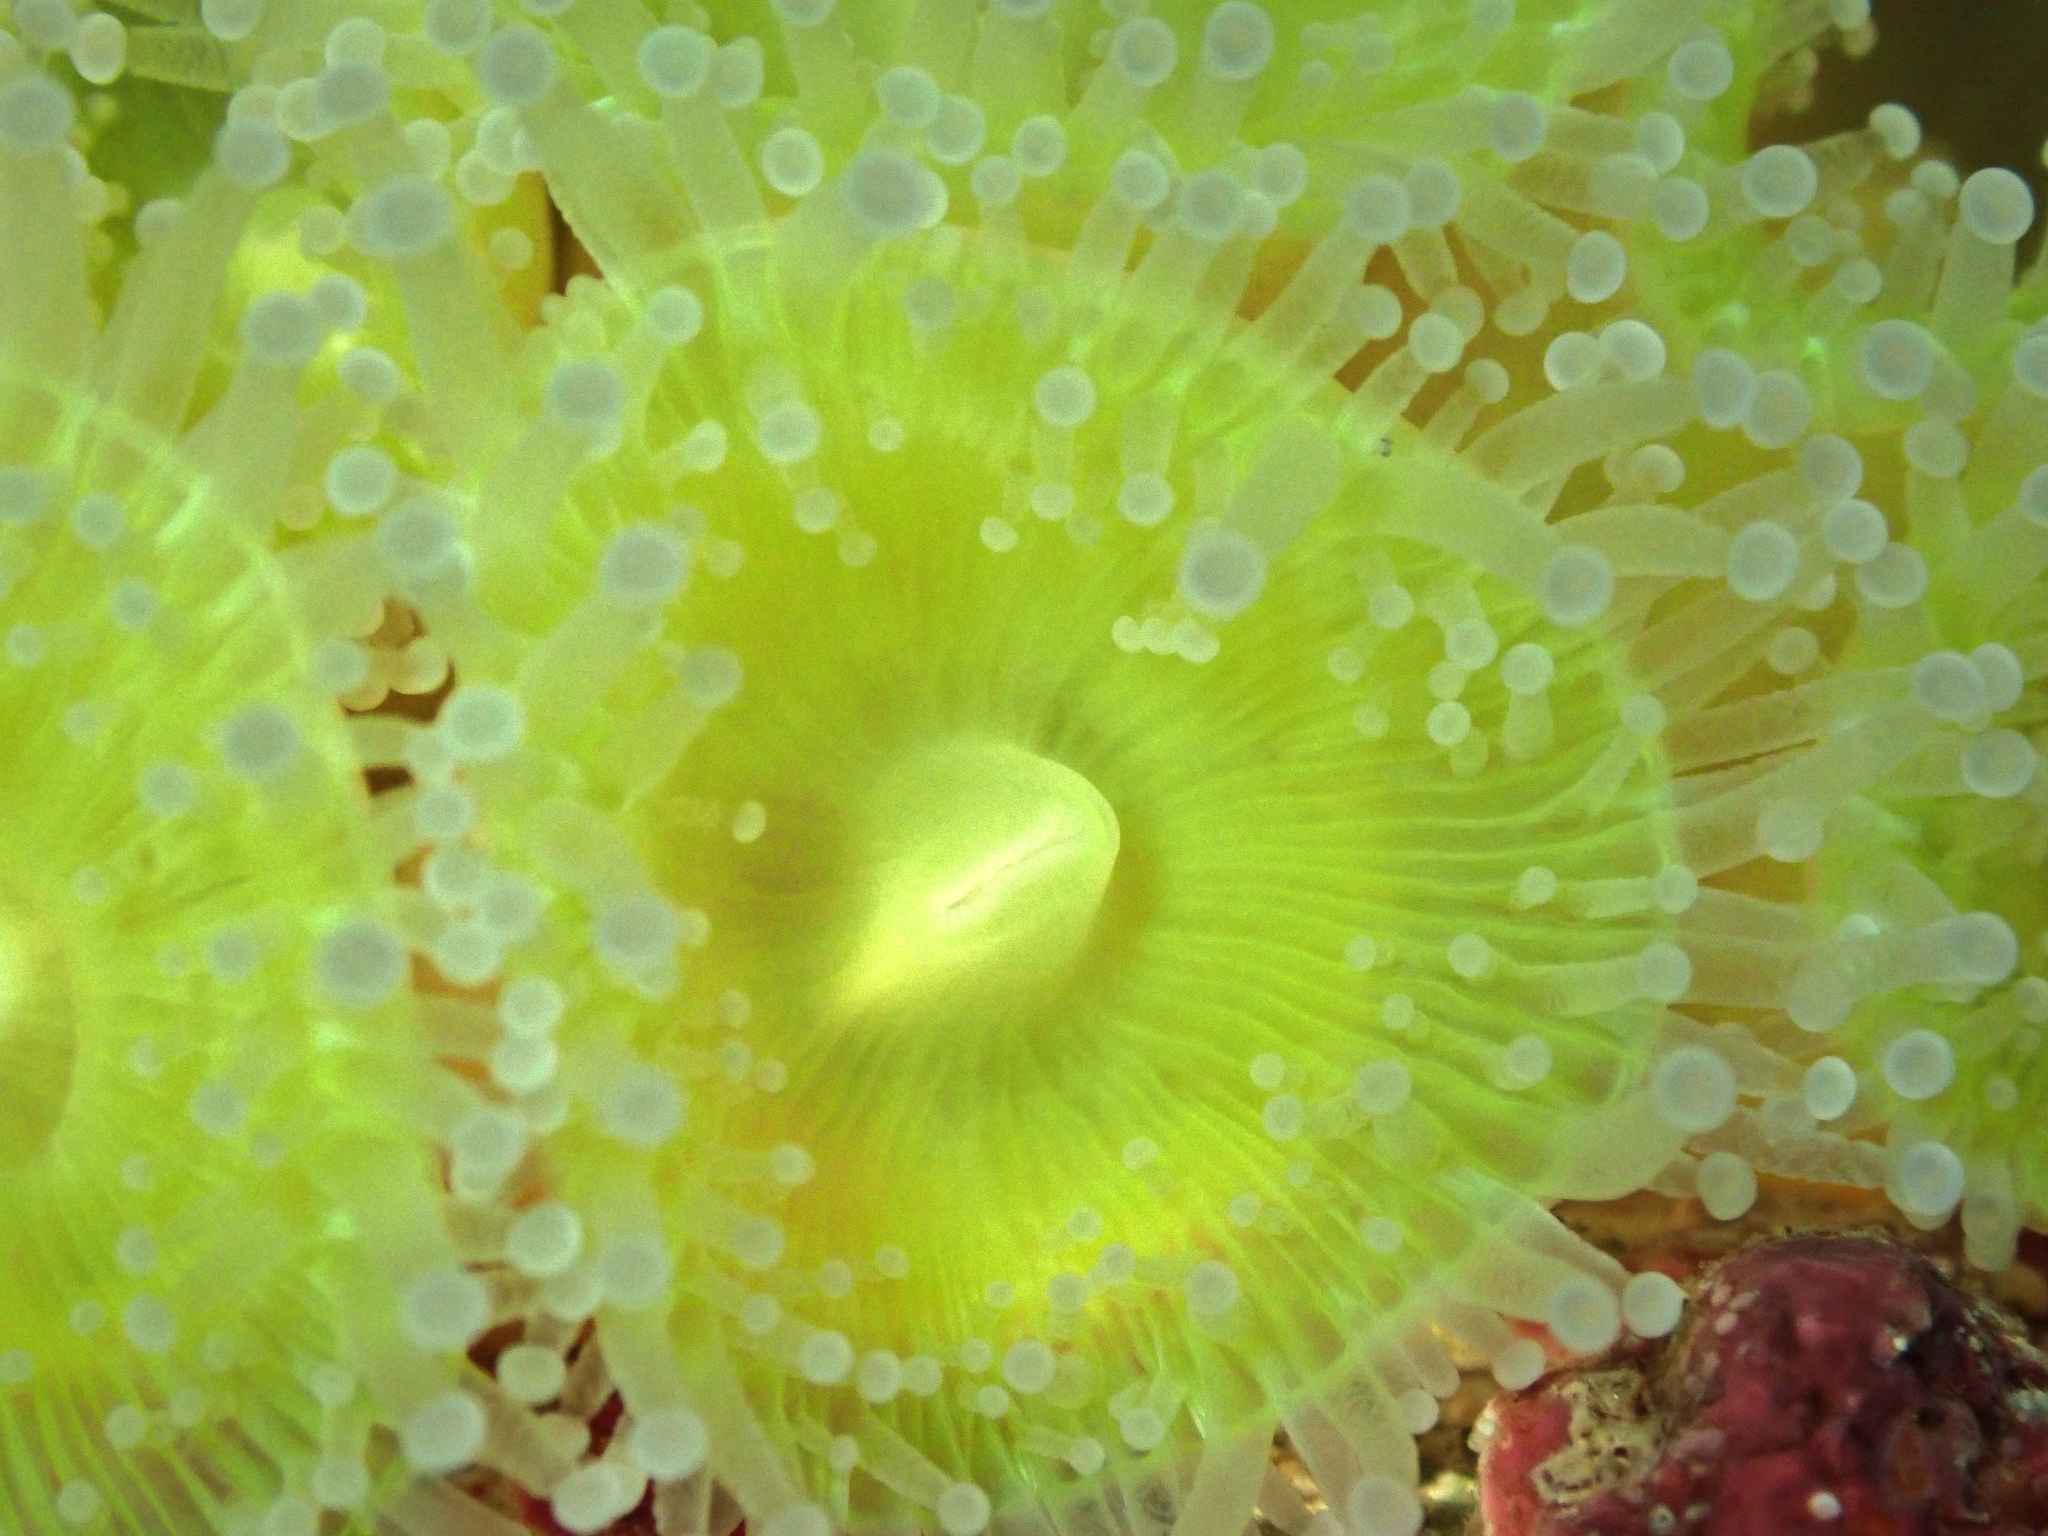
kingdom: Animalia
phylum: Cnidaria
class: Anthozoa
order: Corallimorpharia
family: Corallimorphidae
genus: Corynactis
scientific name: Corynactis australis
